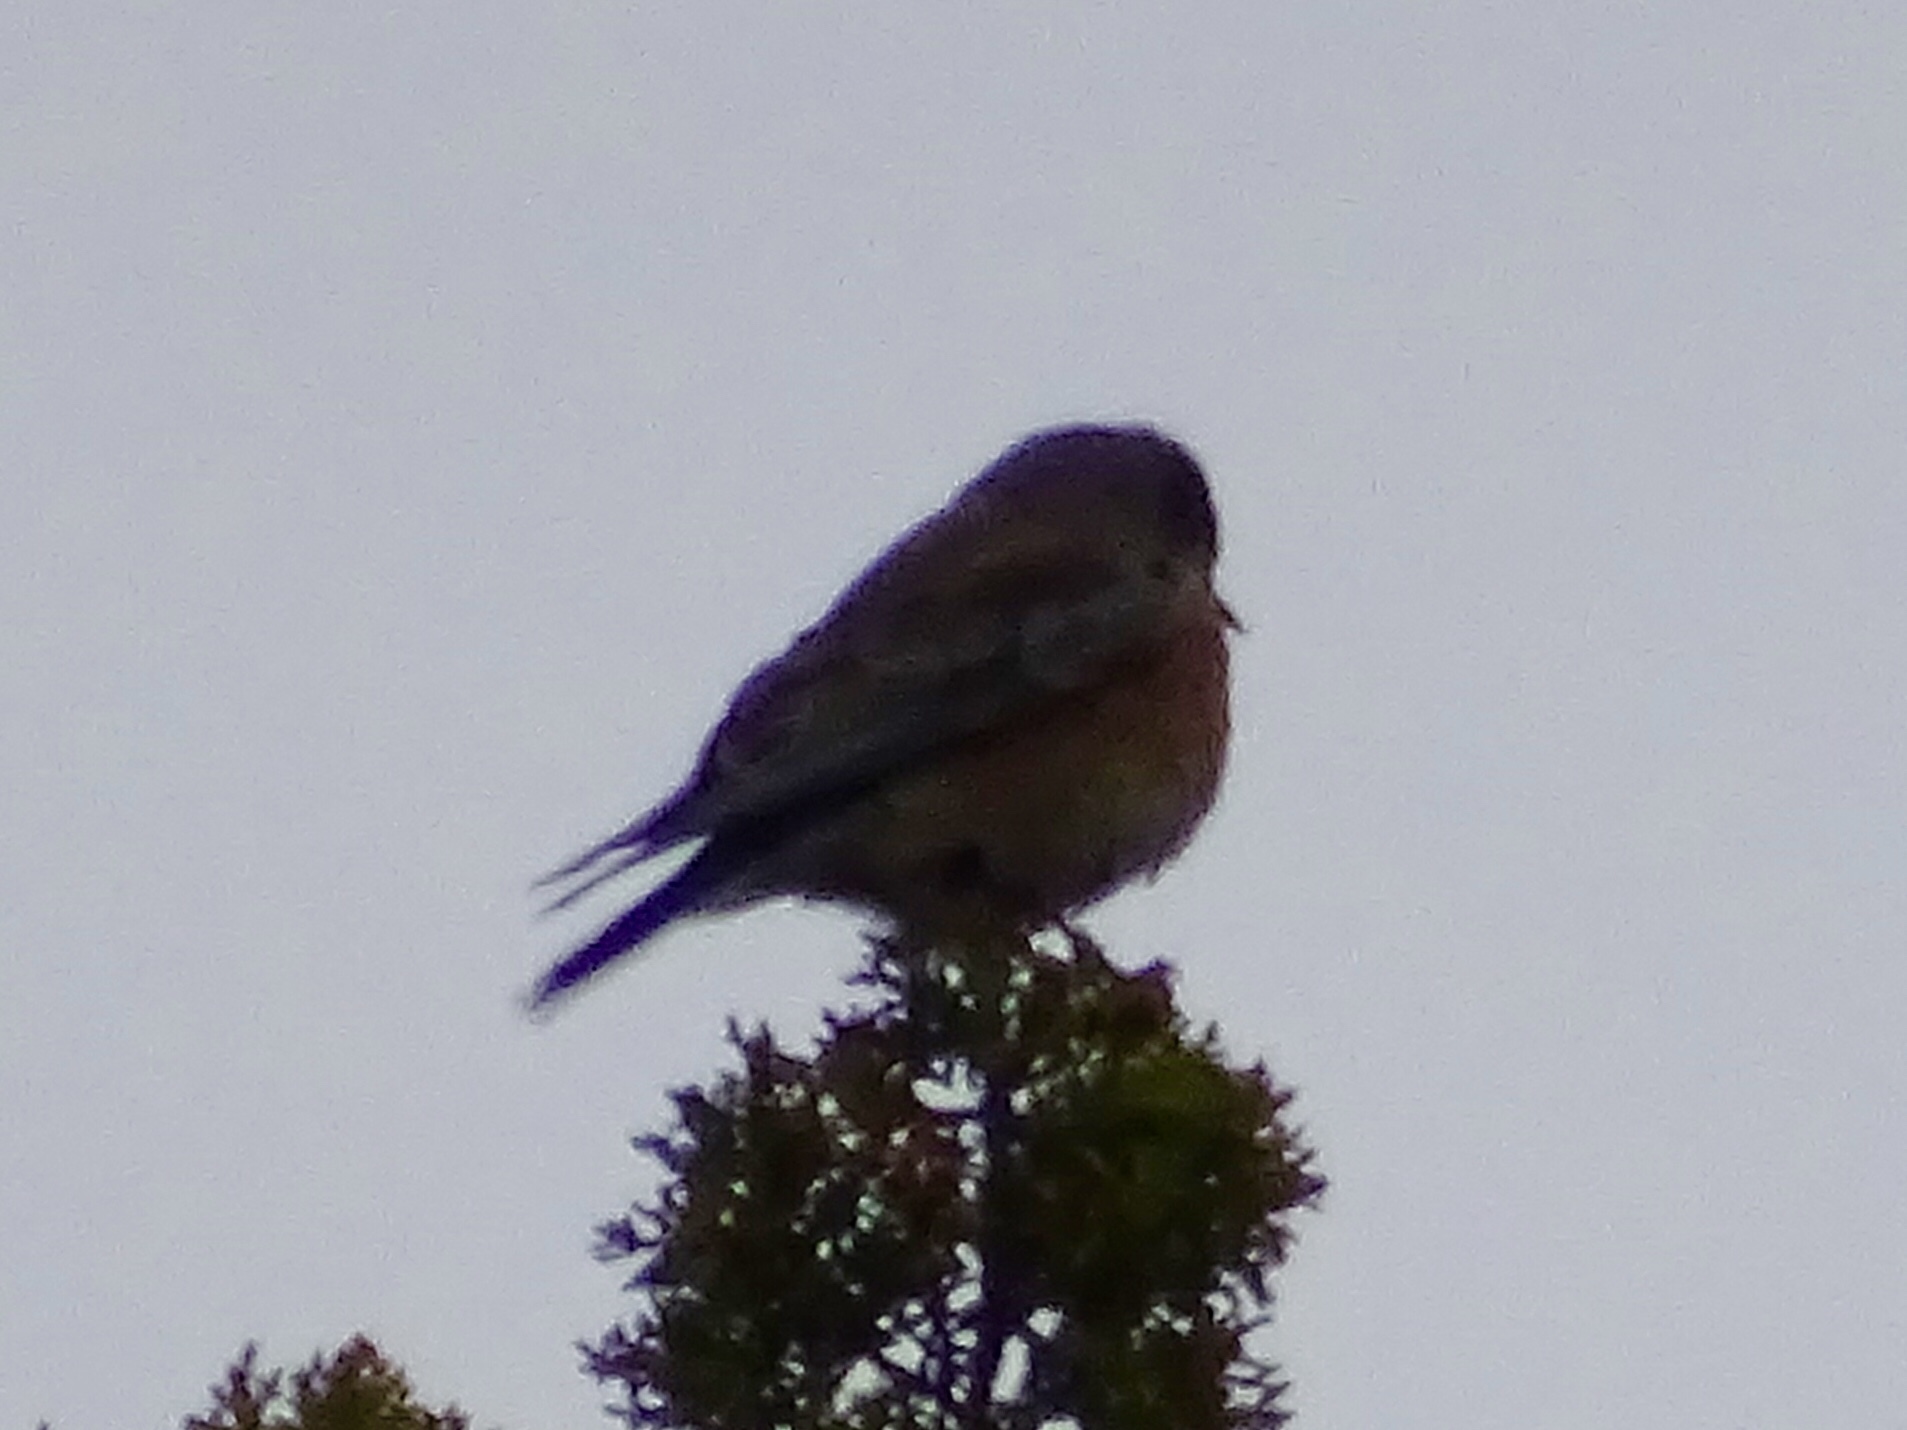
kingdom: Animalia
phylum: Chordata
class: Aves
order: Passeriformes
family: Turdidae
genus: Sialia
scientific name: Sialia mexicana
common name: Western bluebird
